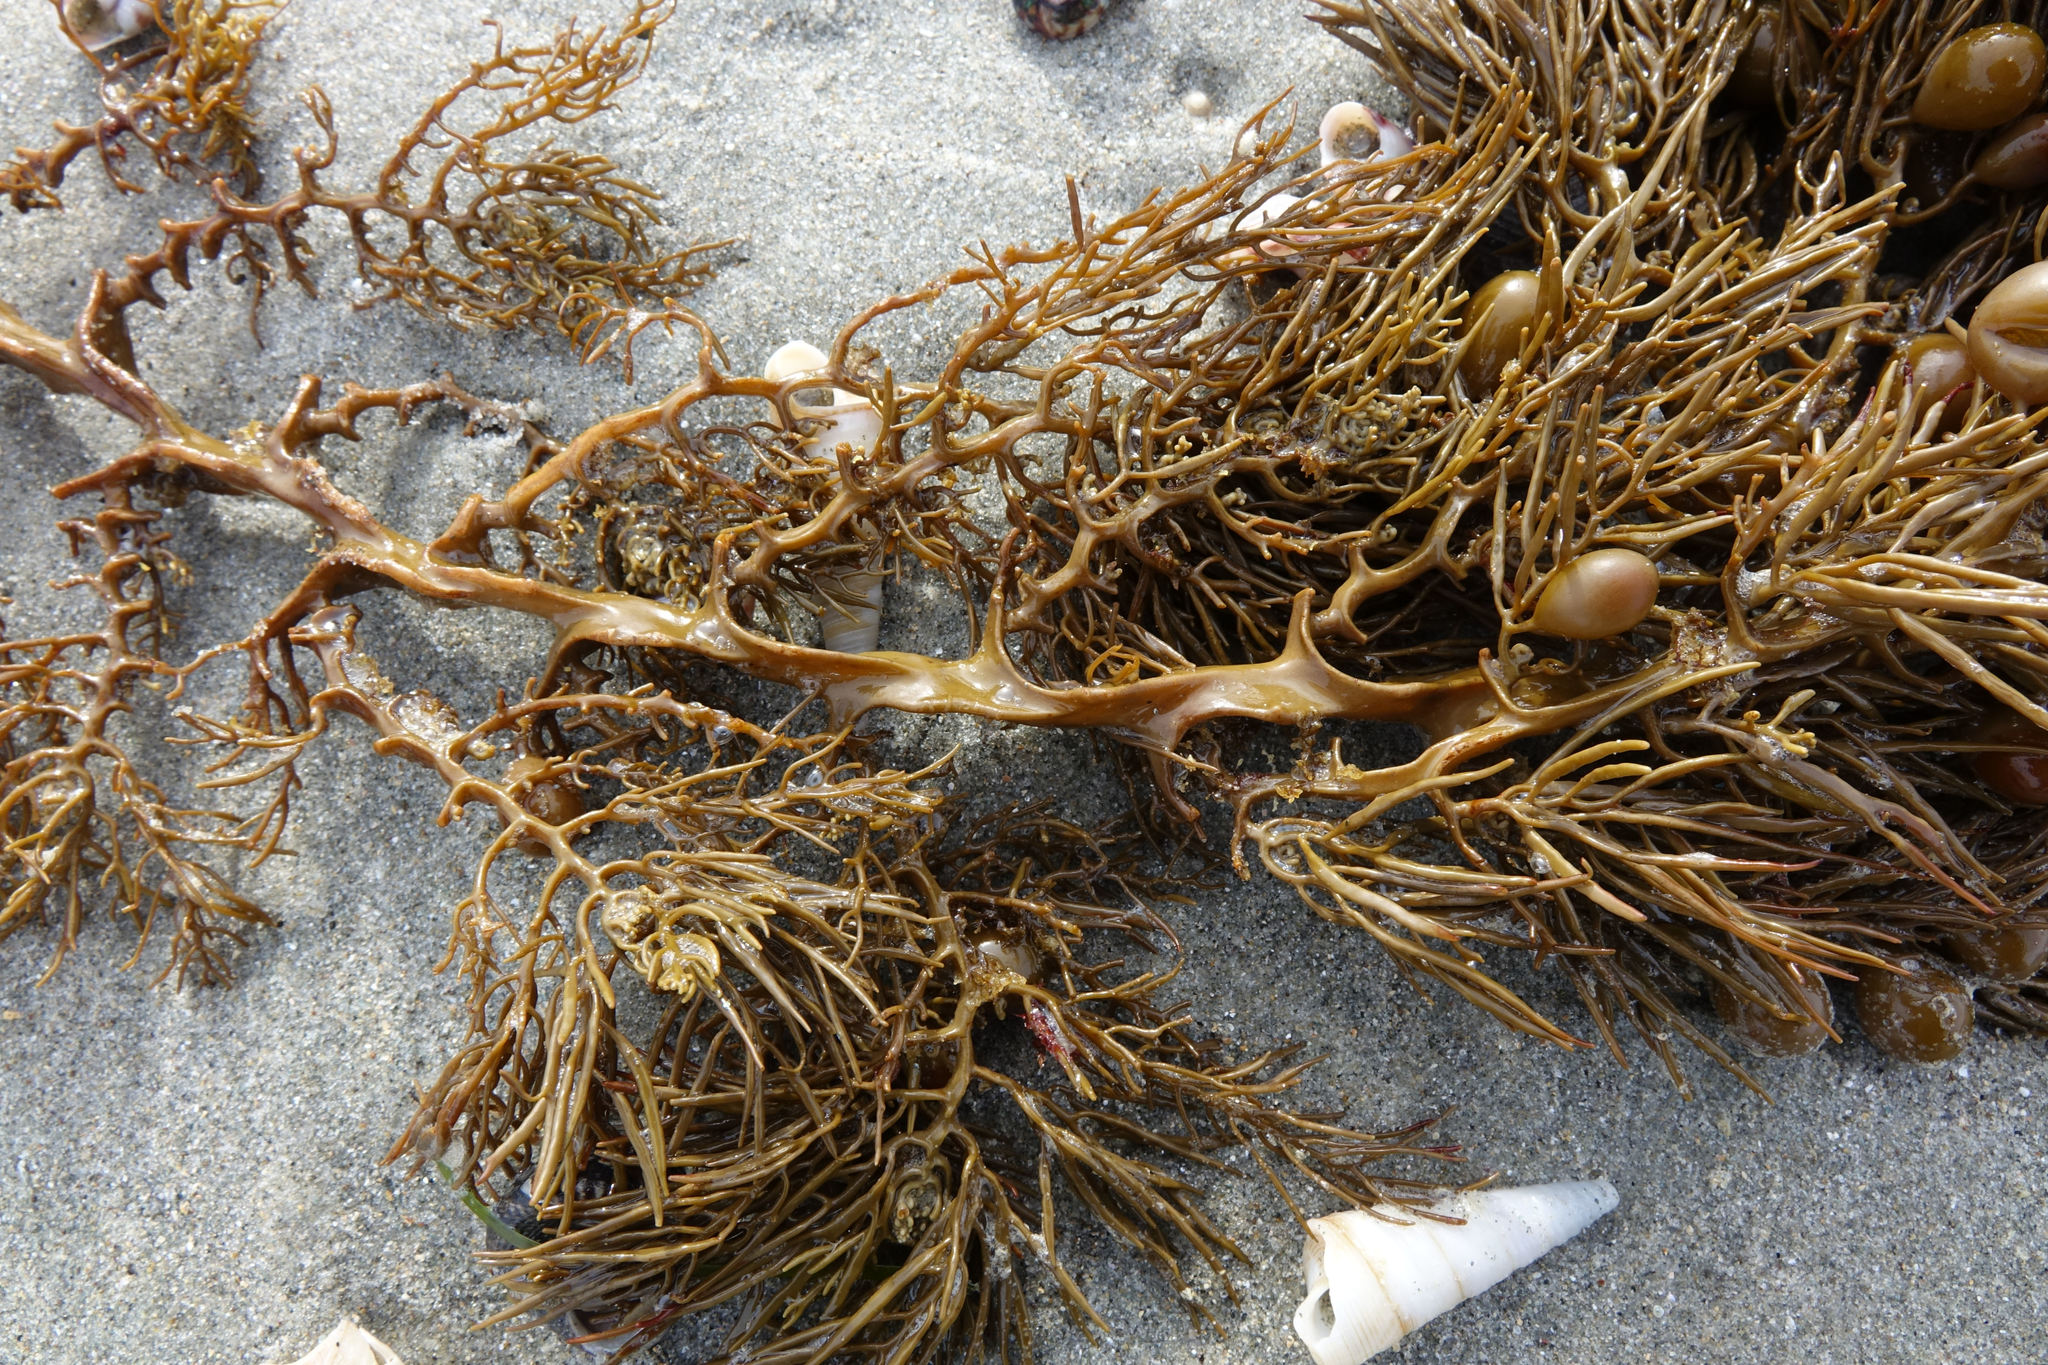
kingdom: Chromista
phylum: Ochrophyta
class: Phaeophyceae
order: Fucales
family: Sargassaceae
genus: Cystophora
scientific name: Cystophora retroflexa
